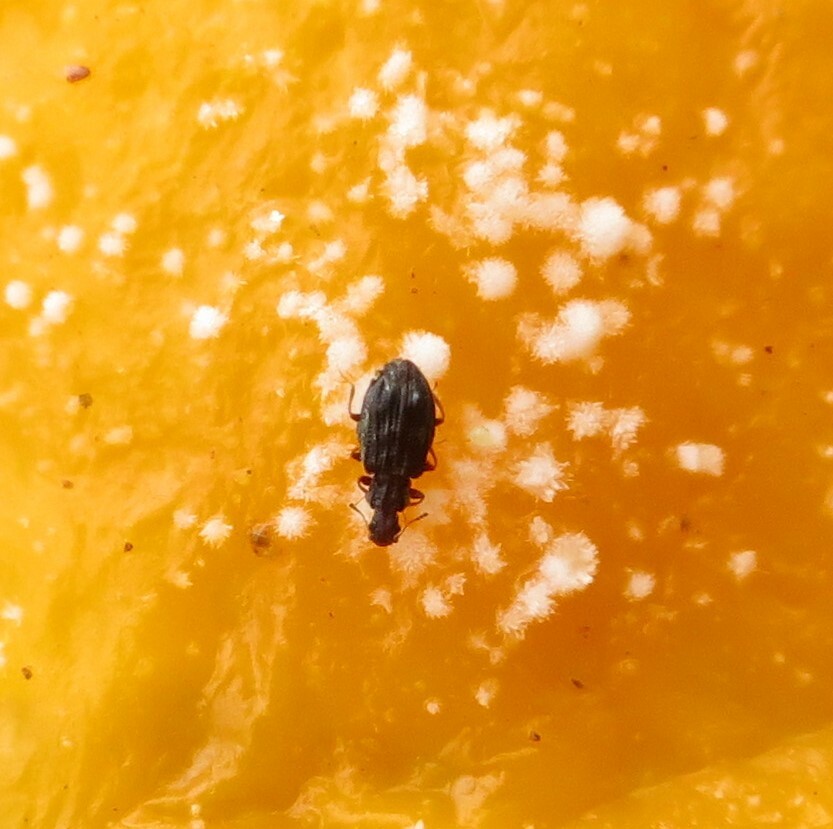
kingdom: Animalia
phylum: Arthropoda
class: Insecta
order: Coleoptera
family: Latridiidae
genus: Cartodere
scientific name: Cartodere nodifer
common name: Humpbacked minute scavenger beetle
